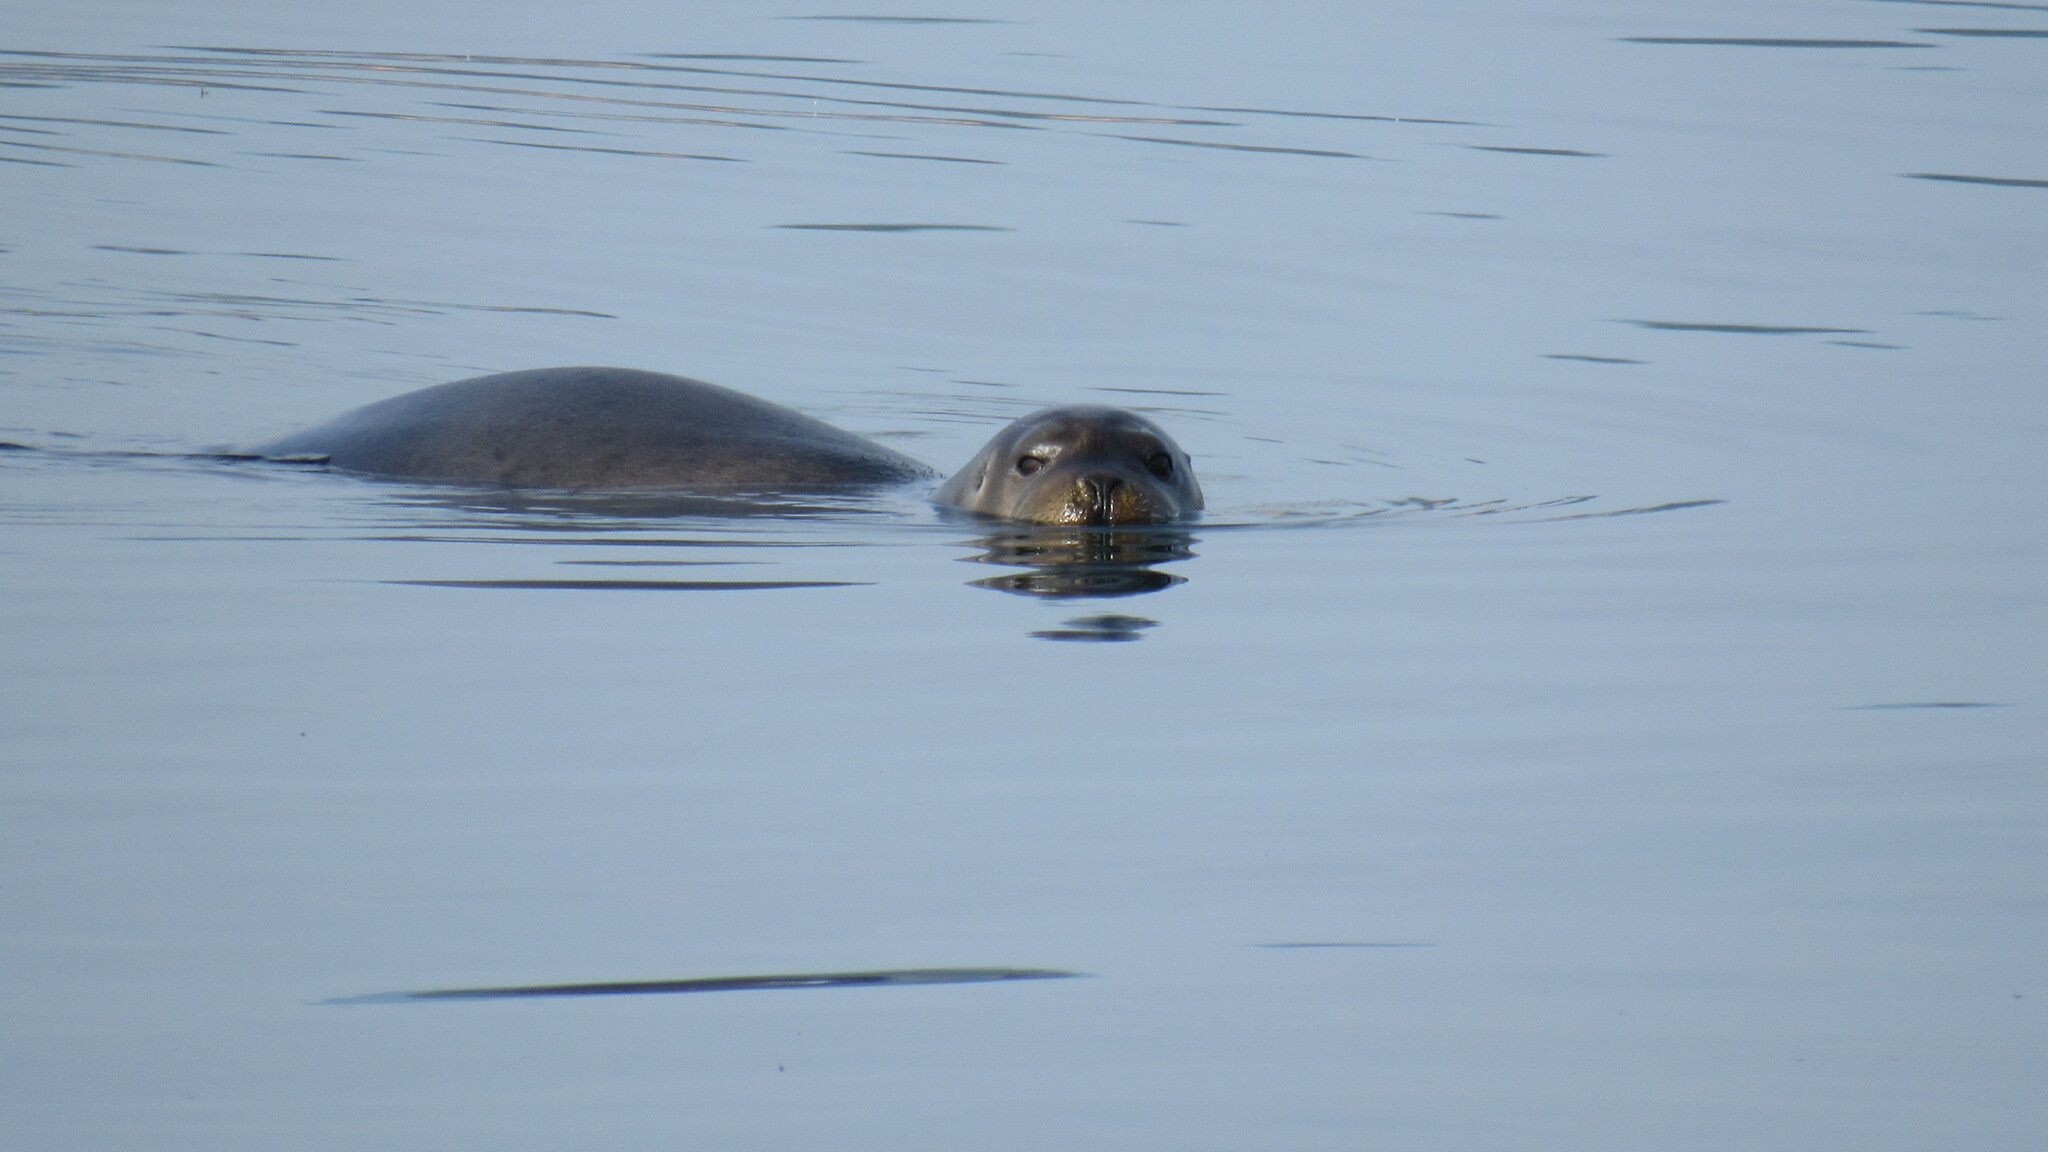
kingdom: Animalia
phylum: Chordata
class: Mammalia
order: Carnivora
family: Phocidae
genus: Erignathus
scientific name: Erignathus barbatus
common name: Bearded seal
